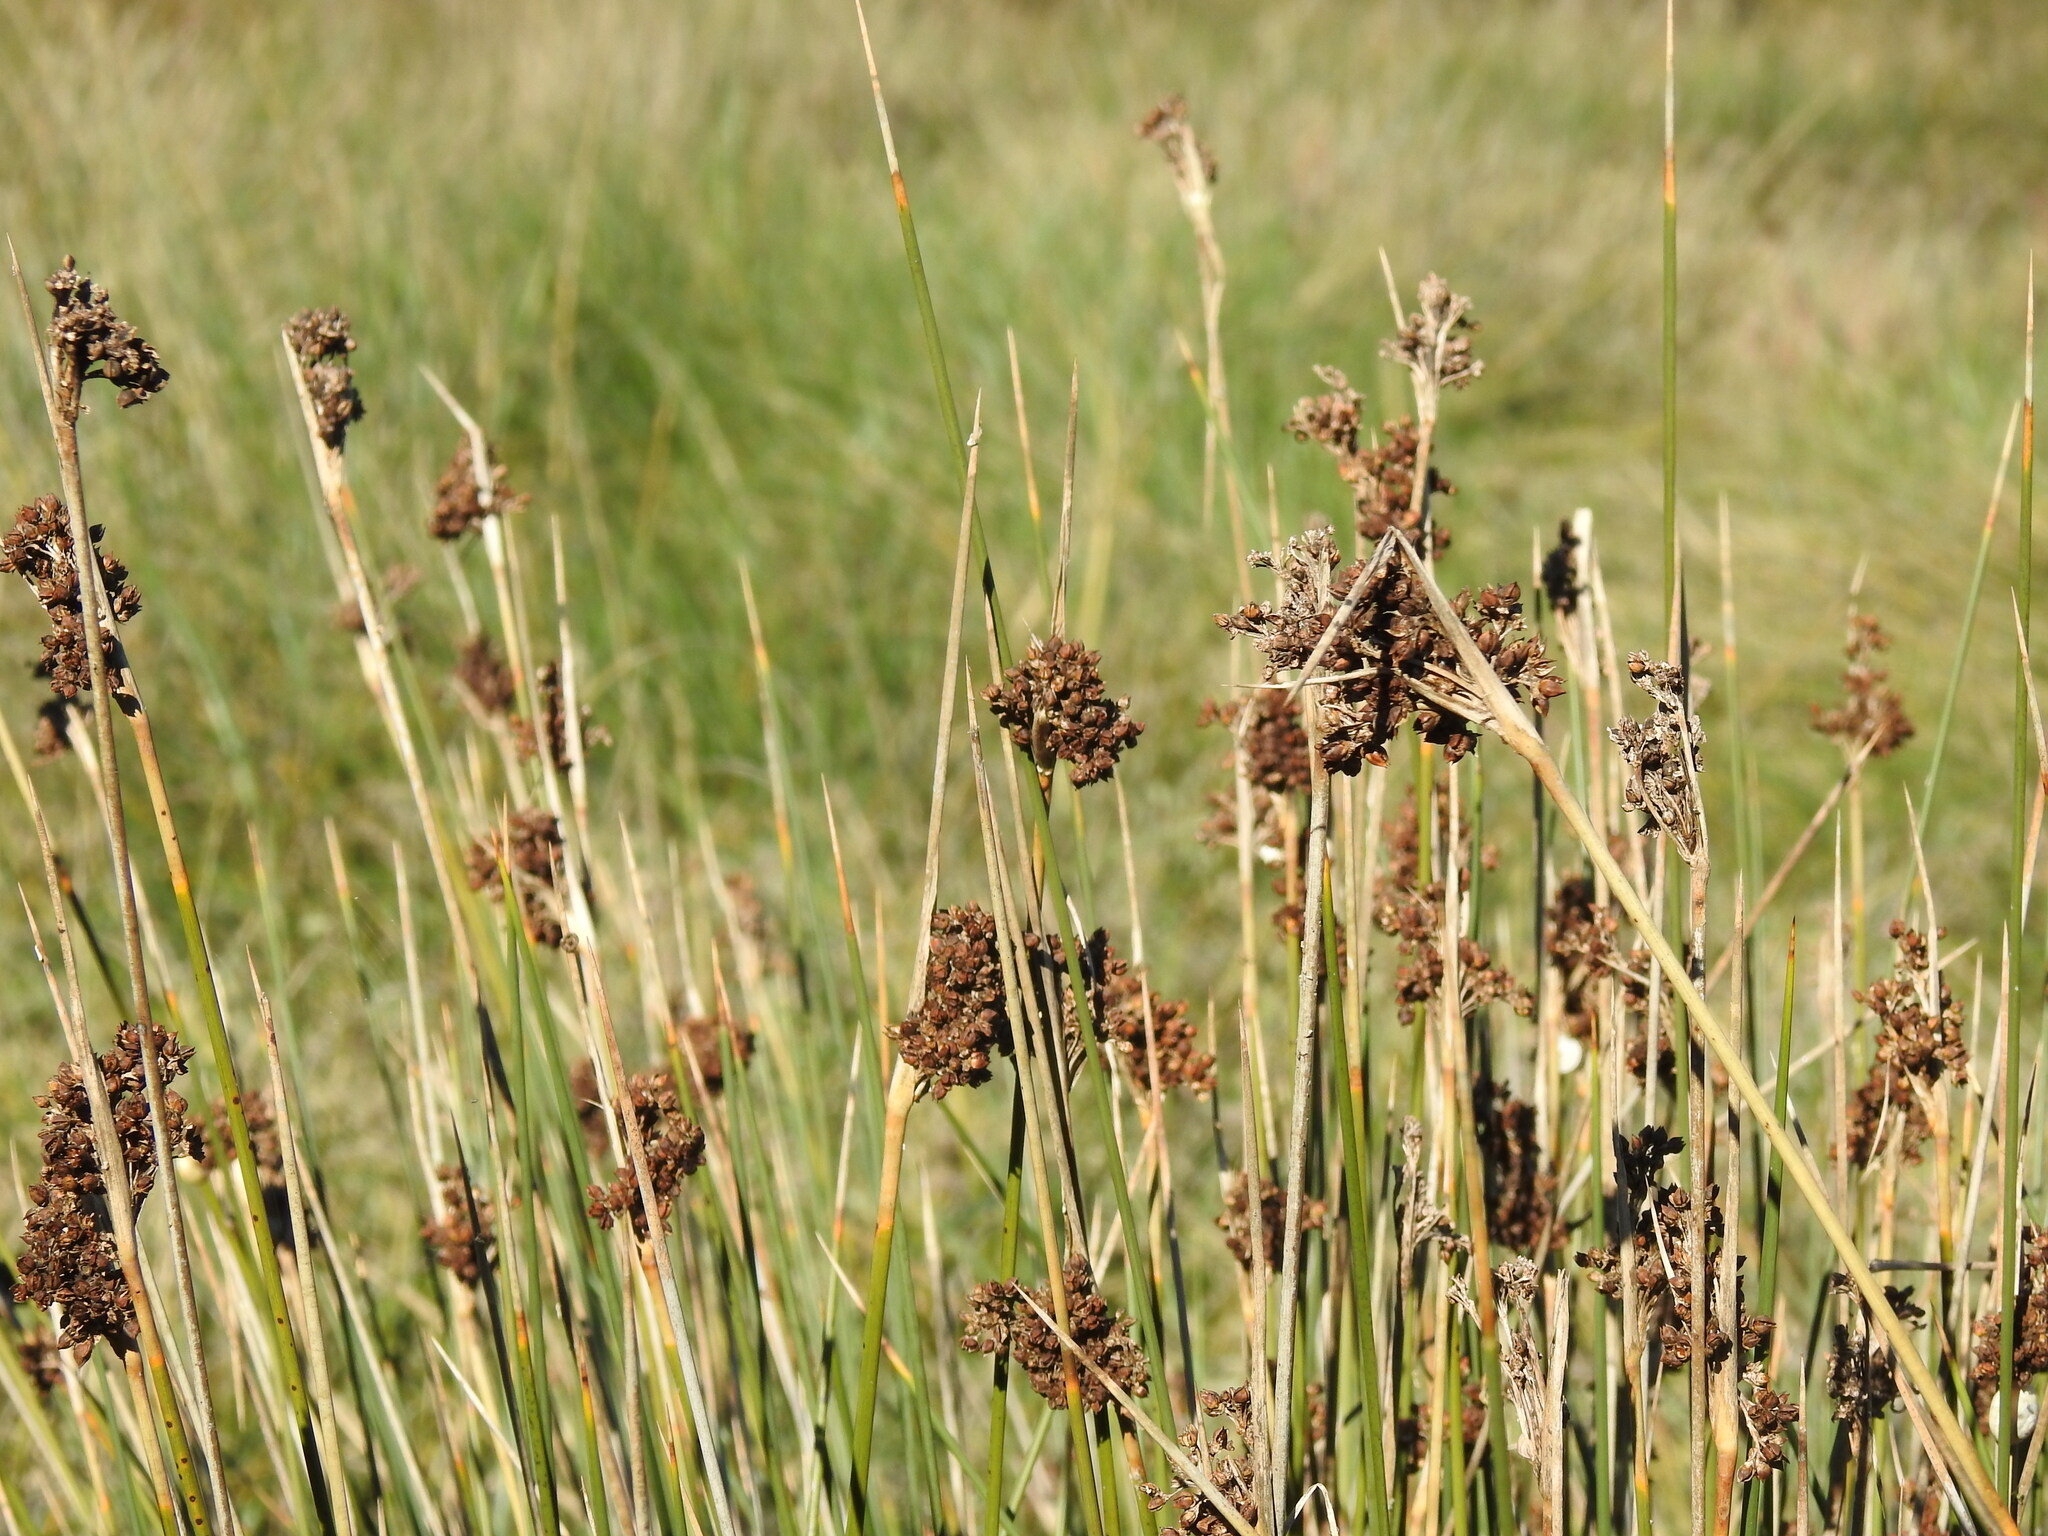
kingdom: Plantae
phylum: Tracheophyta
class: Liliopsida
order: Poales
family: Juncaceae
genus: Juncus
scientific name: Juncus acutus
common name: Sharp rush
